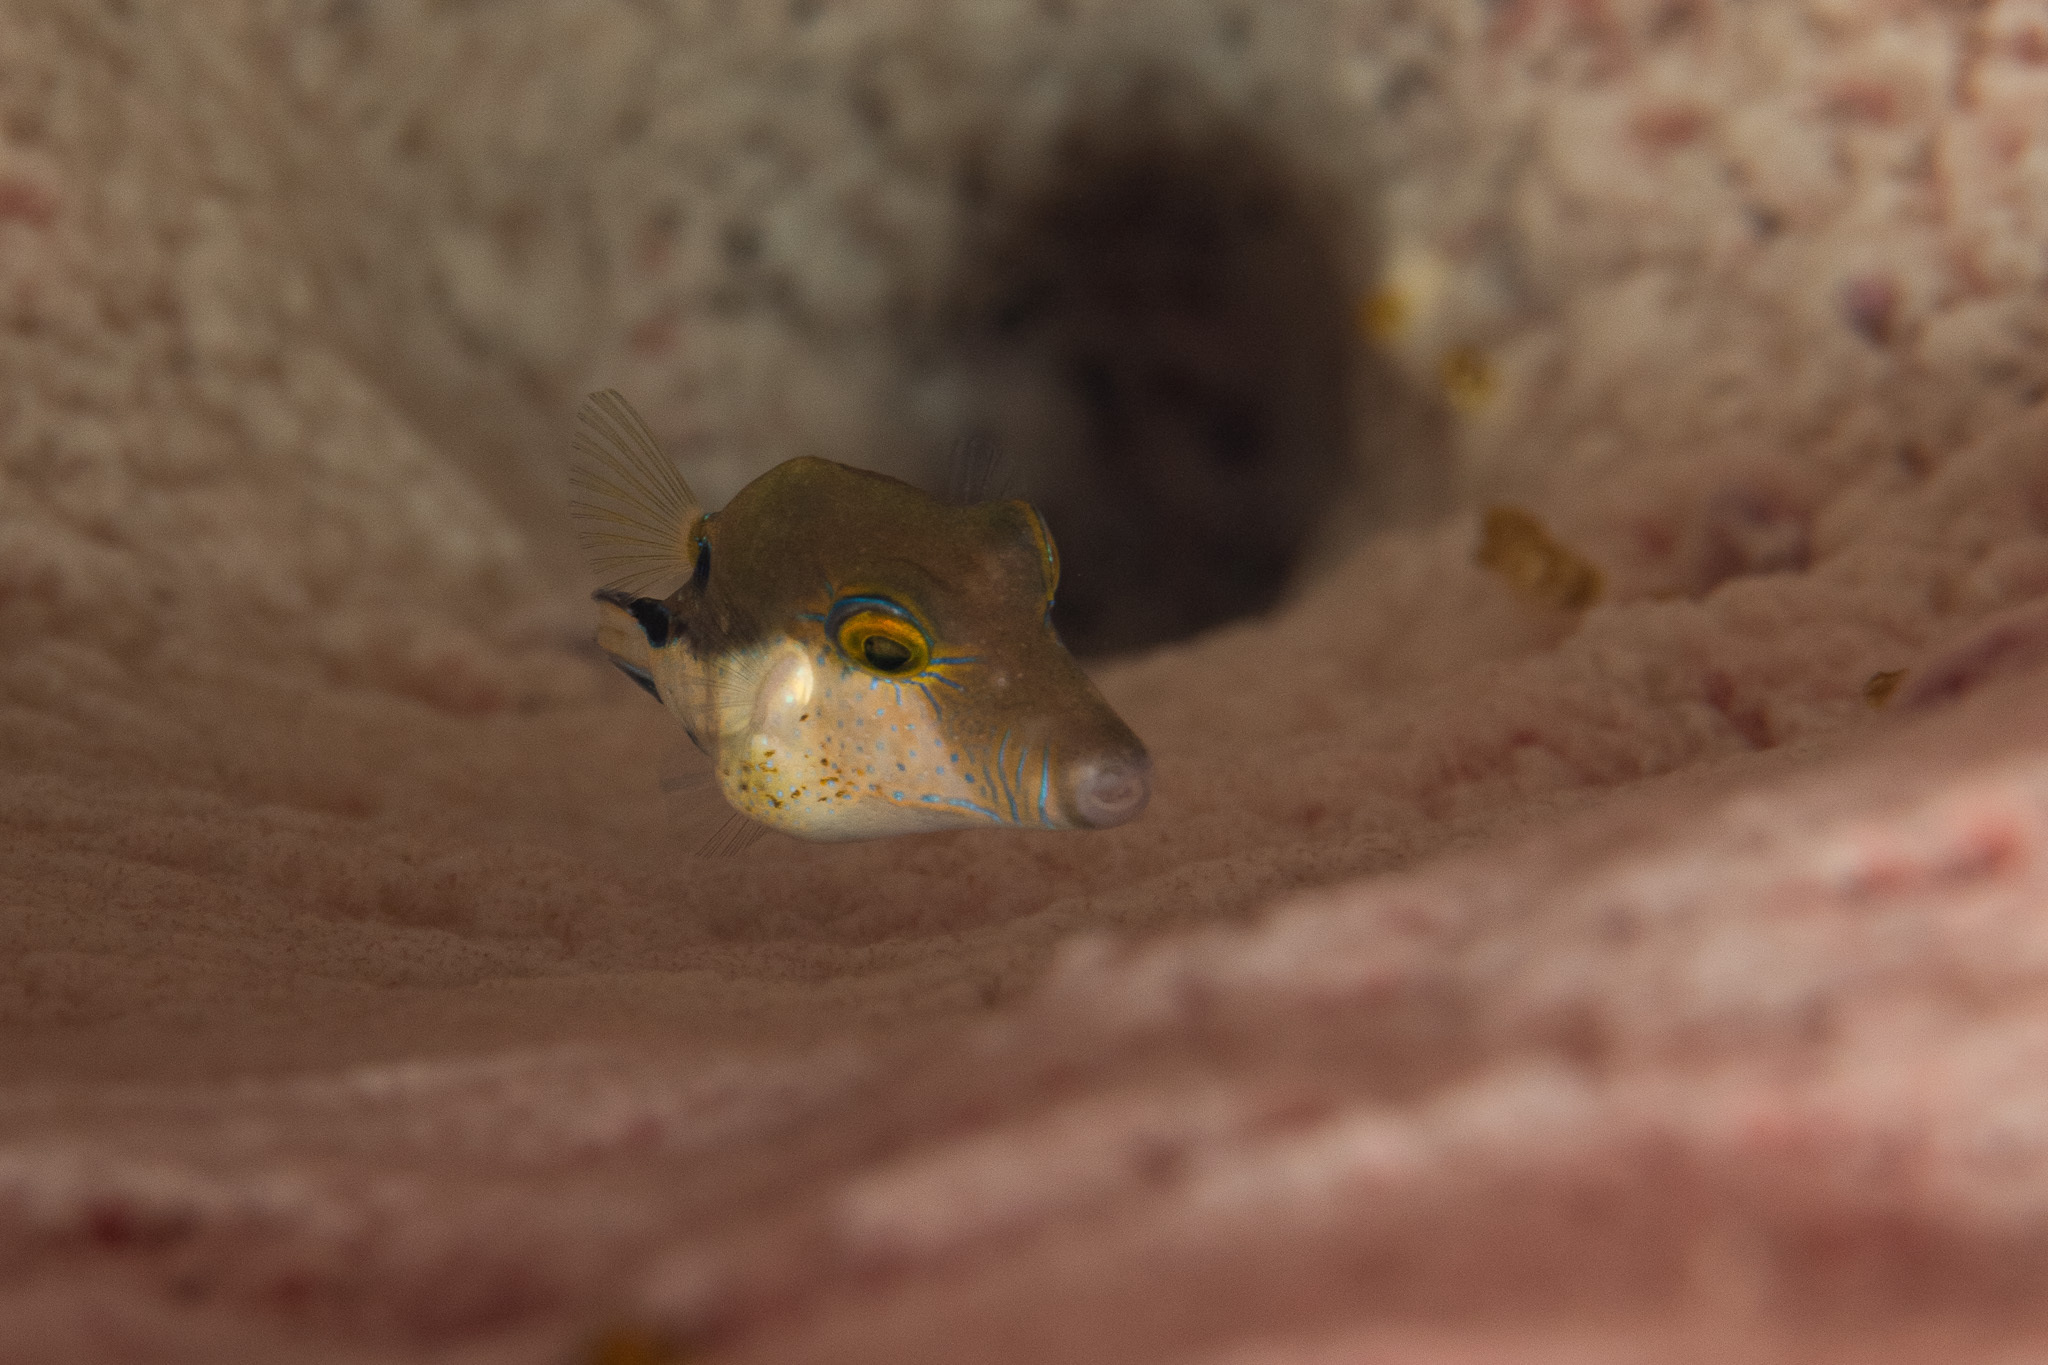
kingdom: Animalia
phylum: Chordata
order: Tetraodontiformes
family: Tetraodontidae
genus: Canthigaster
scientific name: Canthigaster rostrata
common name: Caribbean sharpnose-puffer
